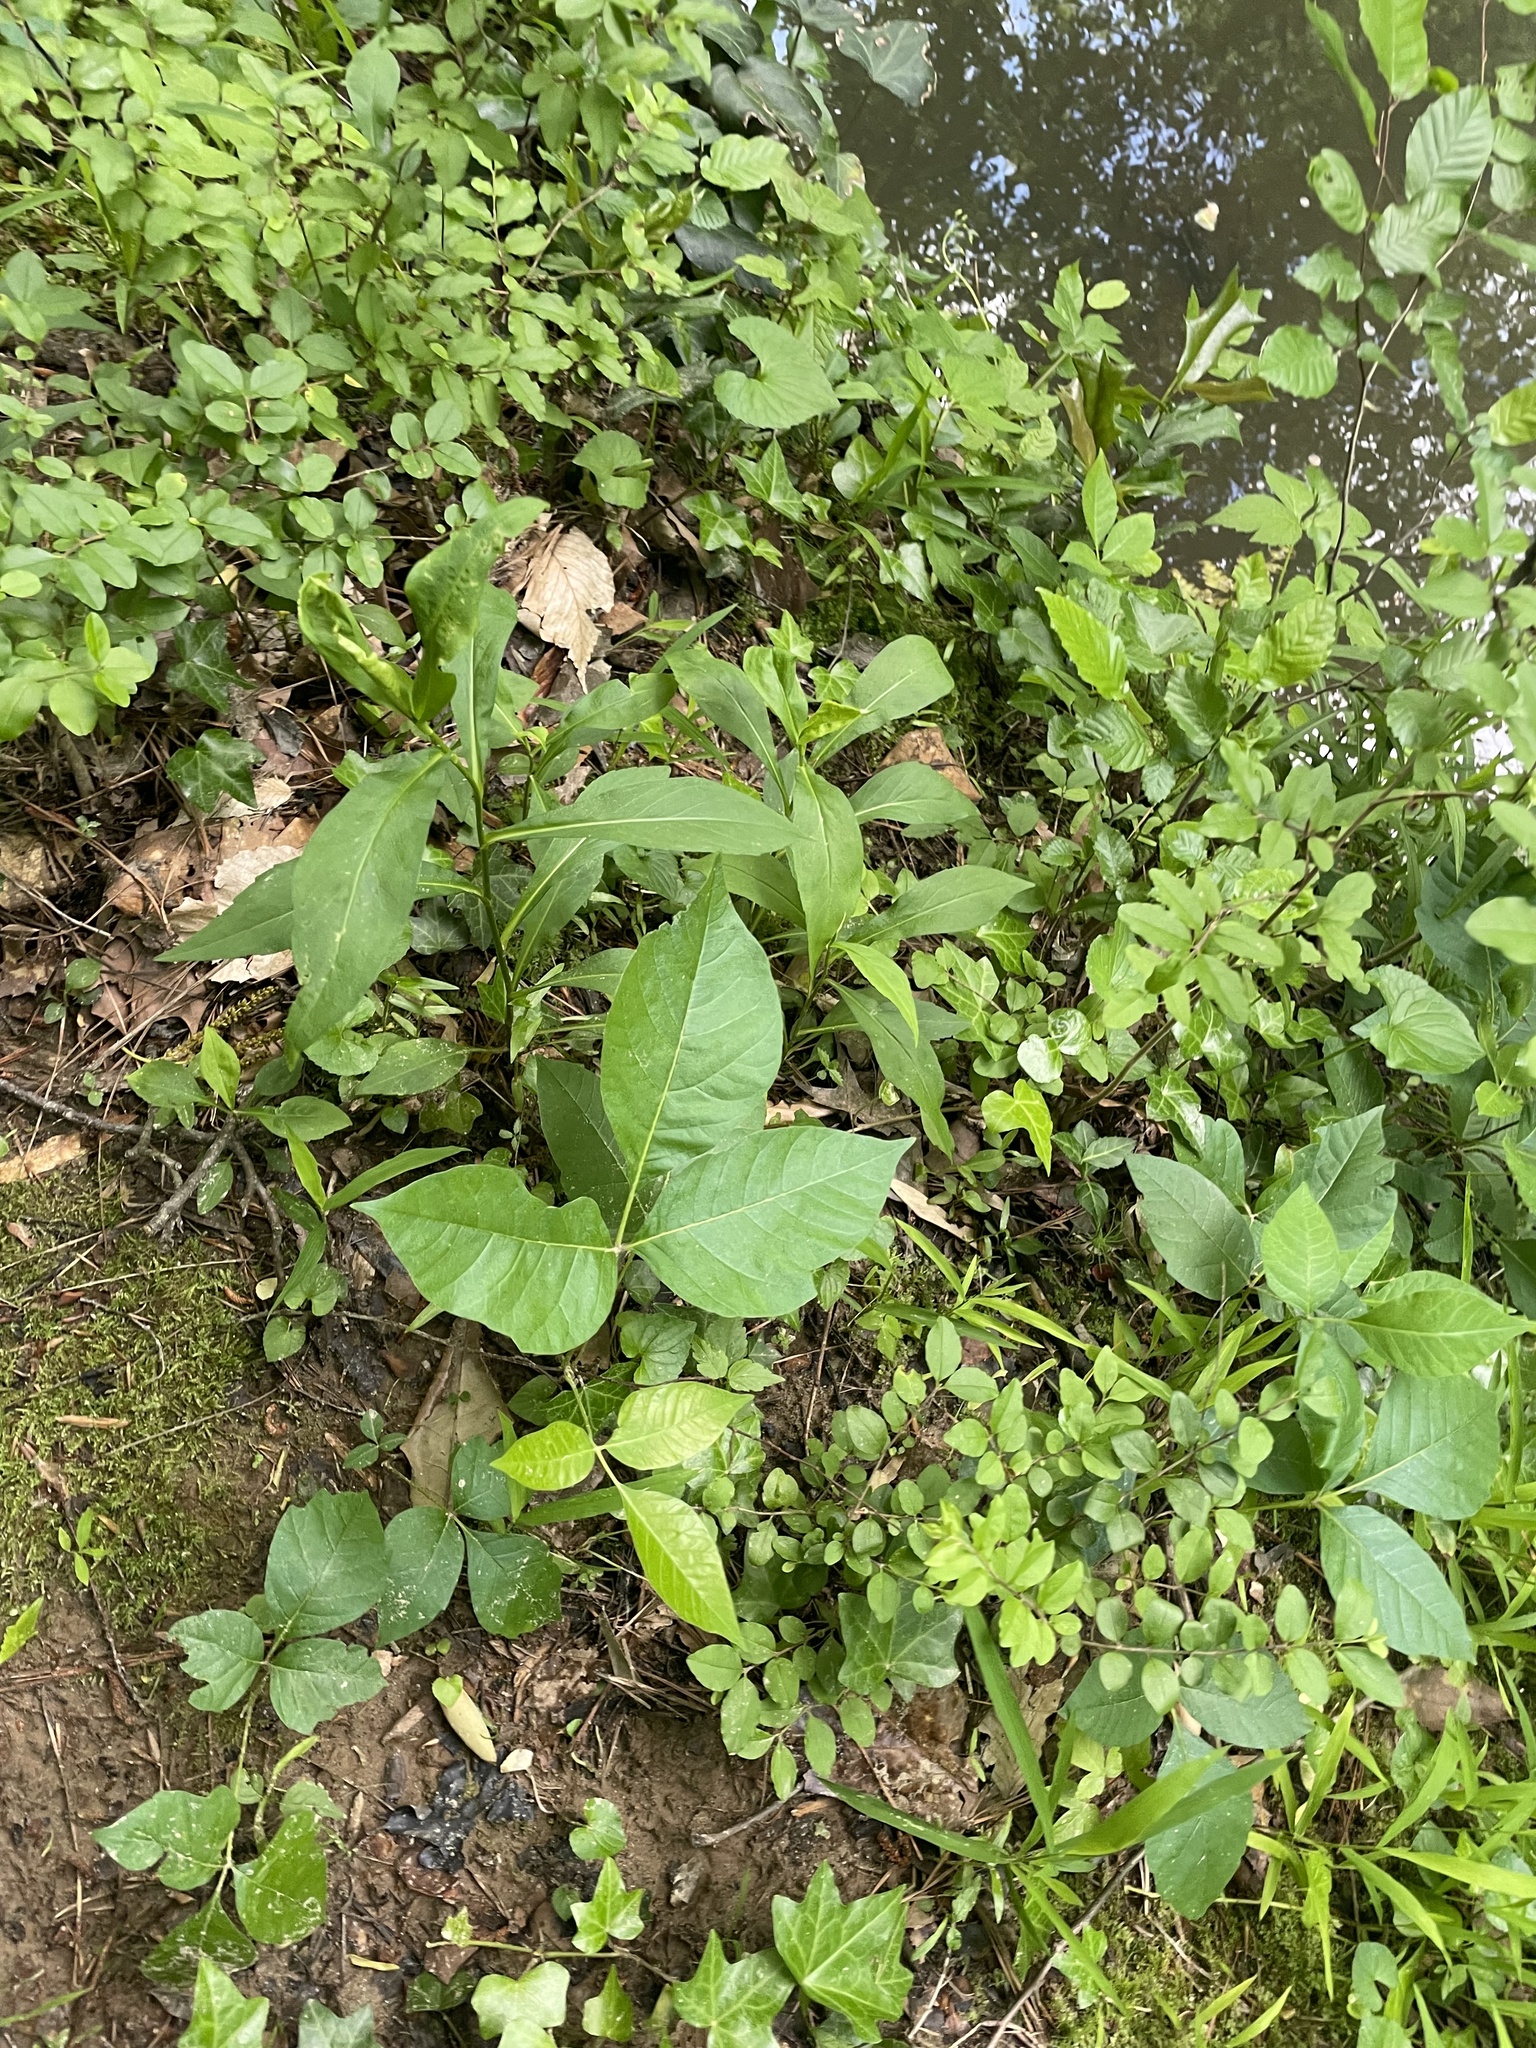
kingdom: Plantae
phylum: Tracheophyta
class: Magnoliopsida
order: Sapindales
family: Anacardiaceae
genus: Toxicodendron
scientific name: Toxicodendron radicans
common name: Poison ivy
